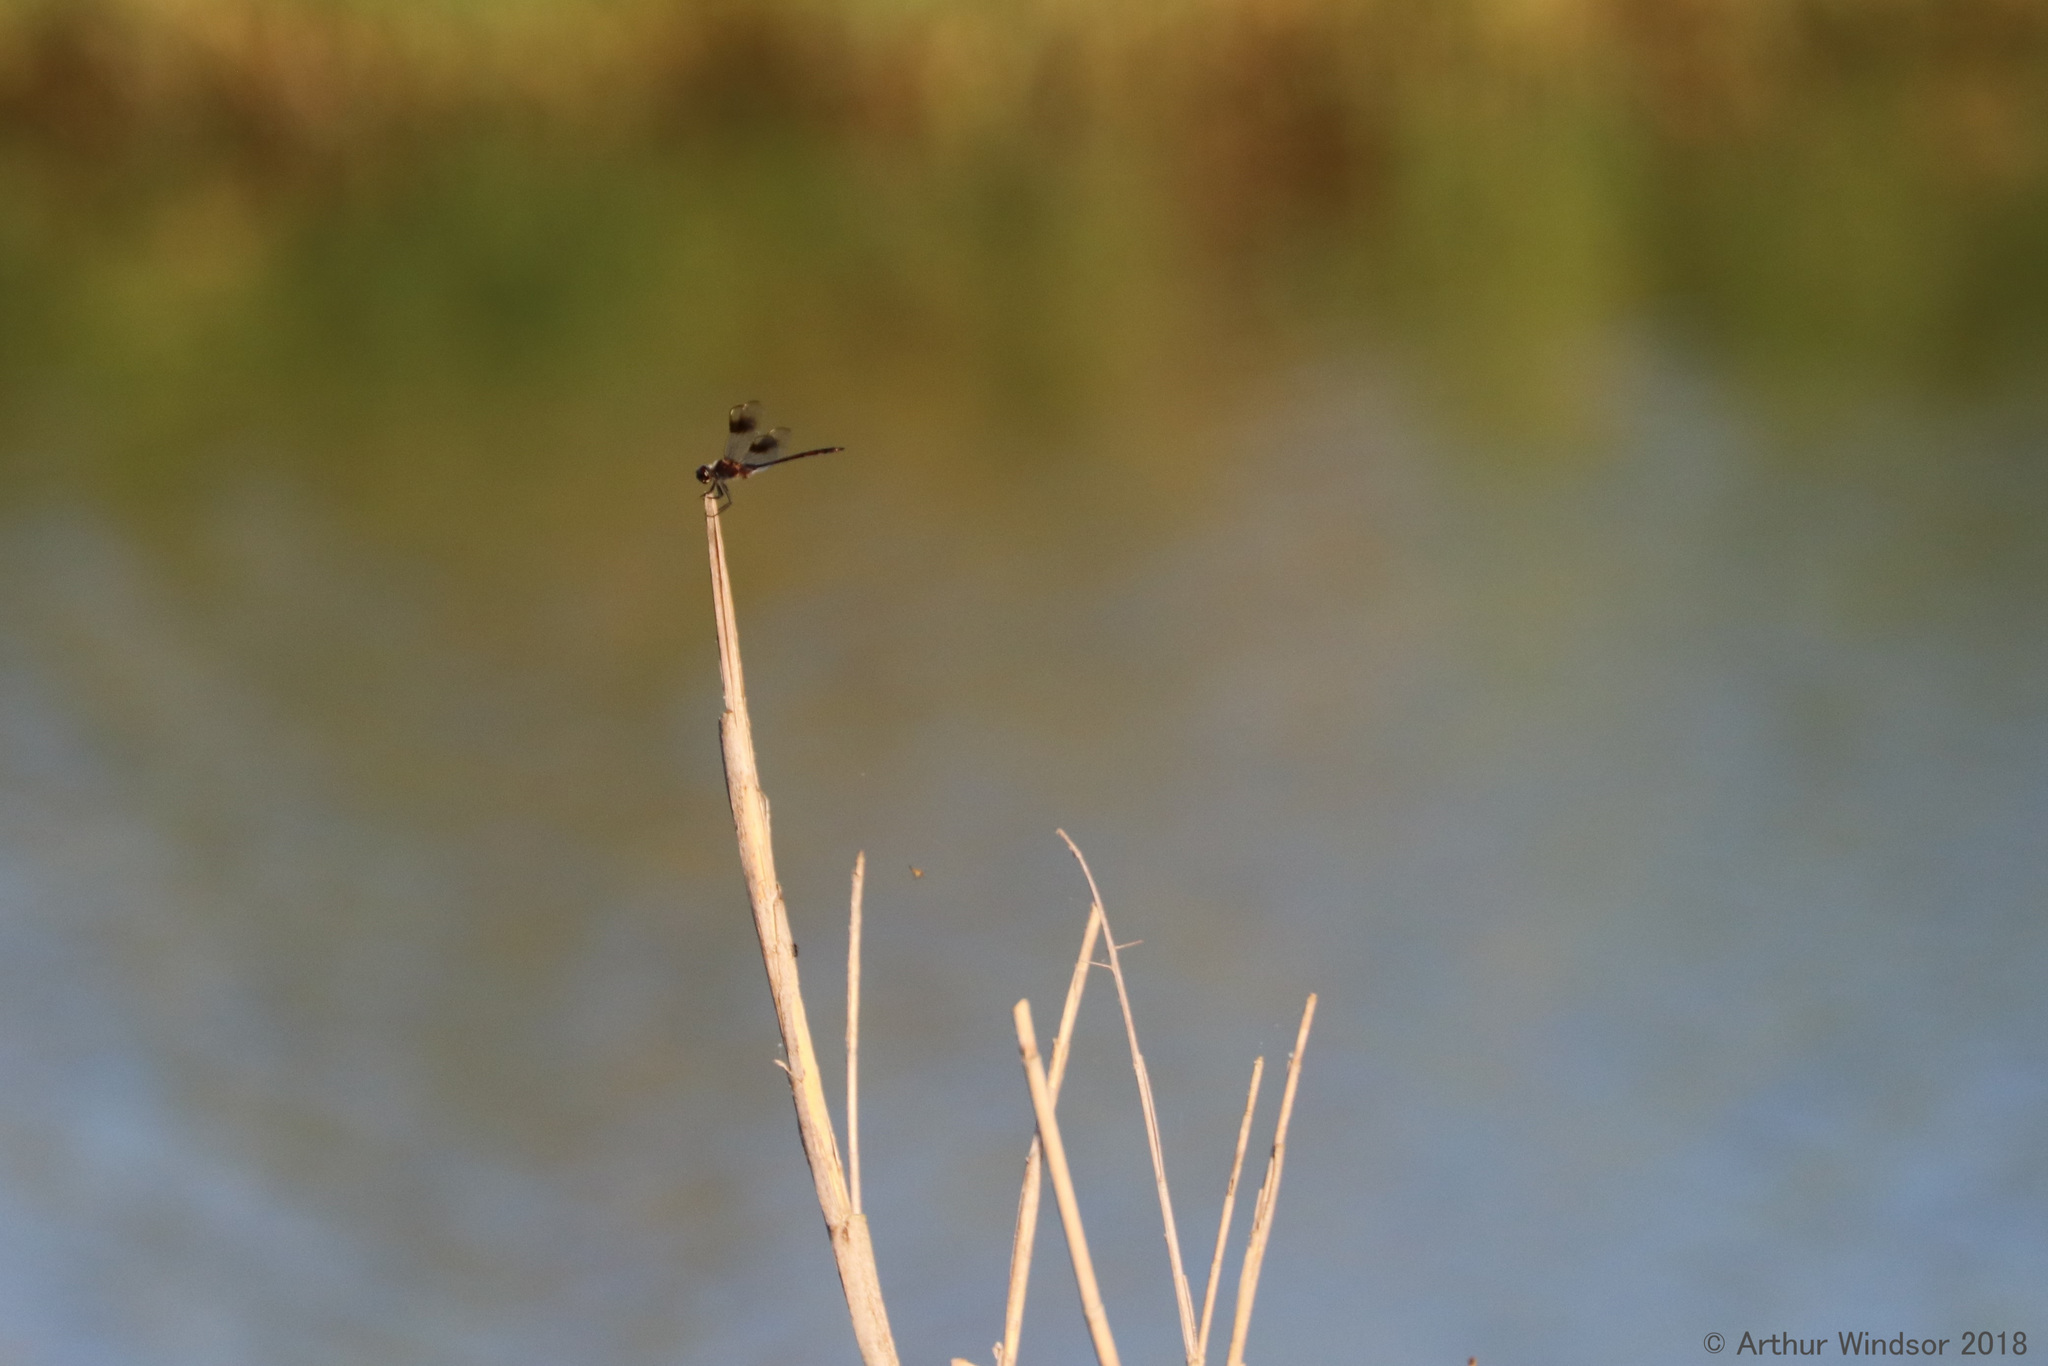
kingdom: Animalia
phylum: Arthropoda
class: Insecta
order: Odonata
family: Libellulidae
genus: Brachymesia
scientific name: Brachymesia gravida
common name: Four-spotted pennant
